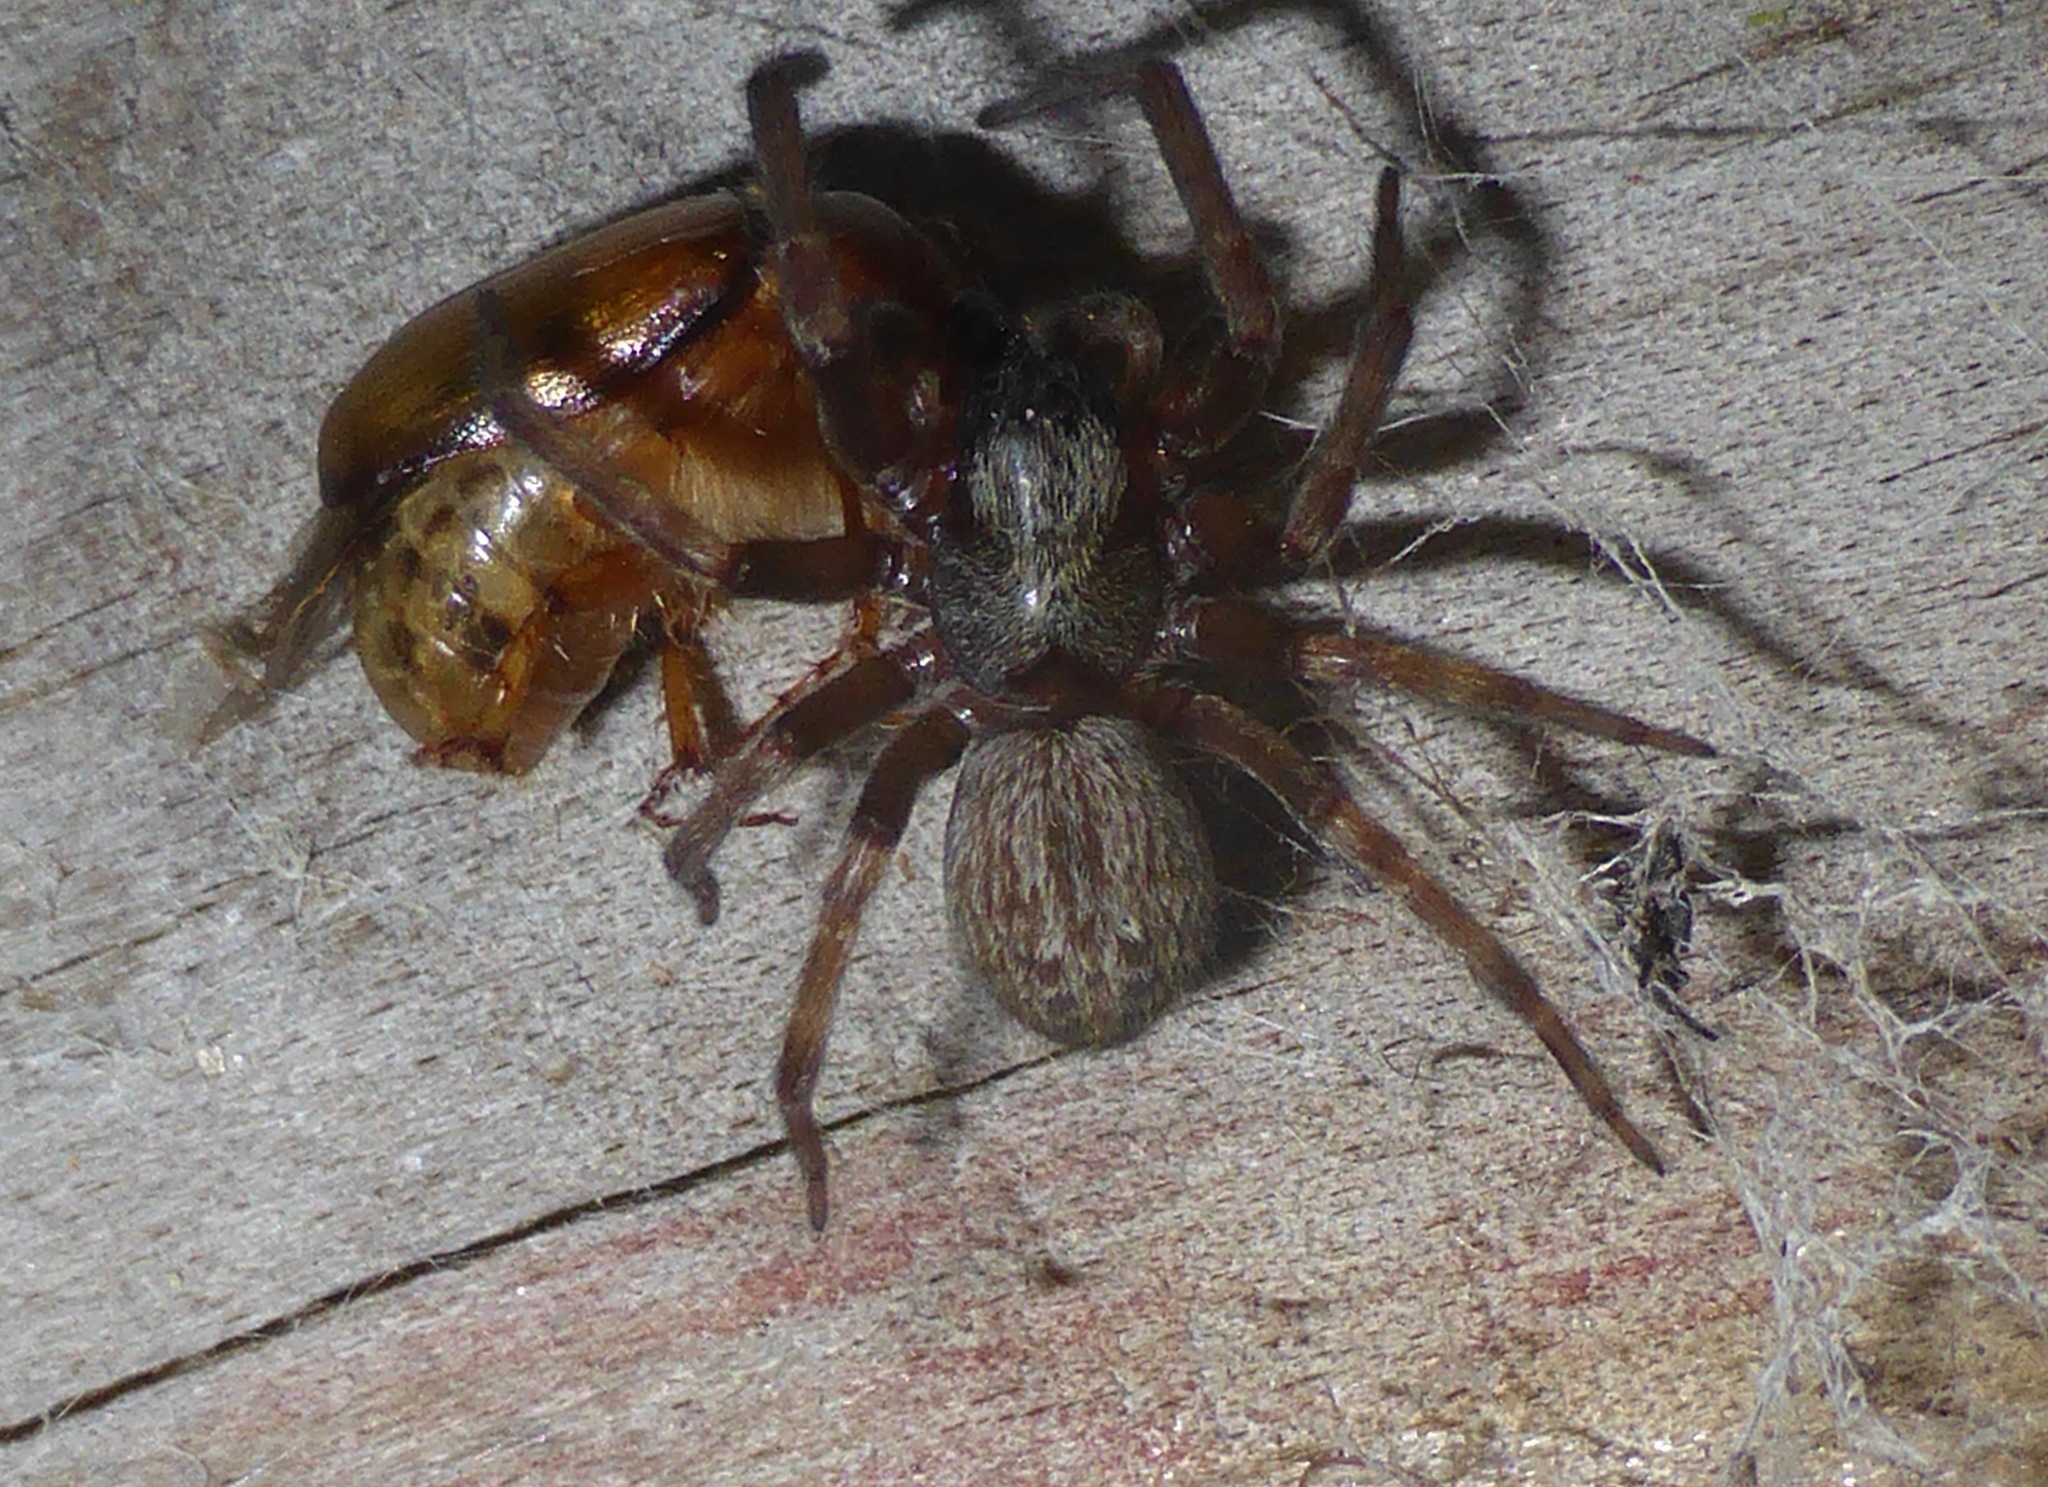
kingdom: Animalia
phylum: Arthropoda
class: Arachnida
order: Araneae
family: Desidae
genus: Badumna
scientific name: Badumna longinqua
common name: Gray house spider
